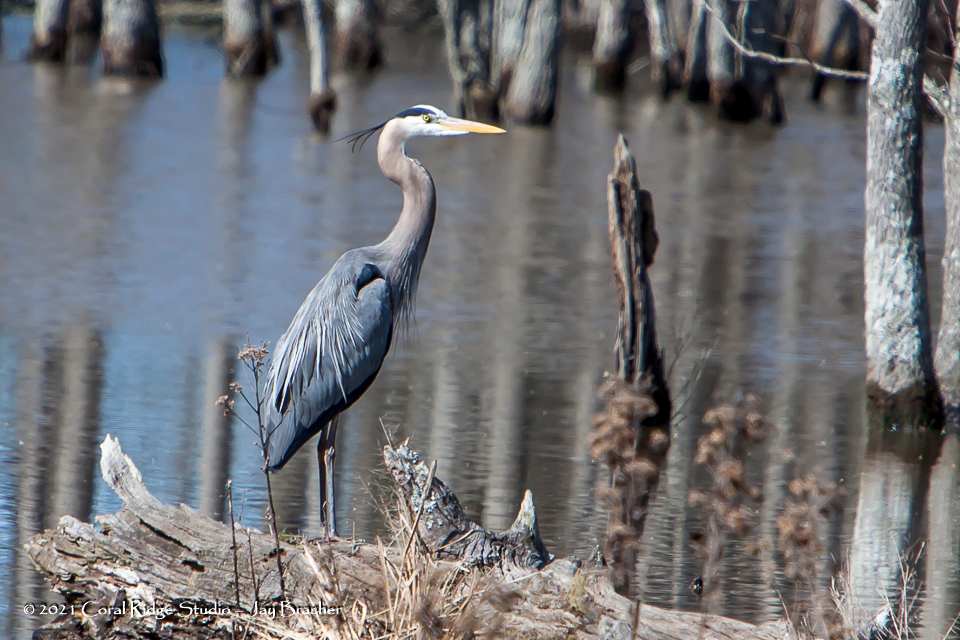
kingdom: Animalia
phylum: Chordata
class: Aves
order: Pelecaniformes
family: Ardeidae
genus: Ardea
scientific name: Ardea herodias
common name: Great blue heron
